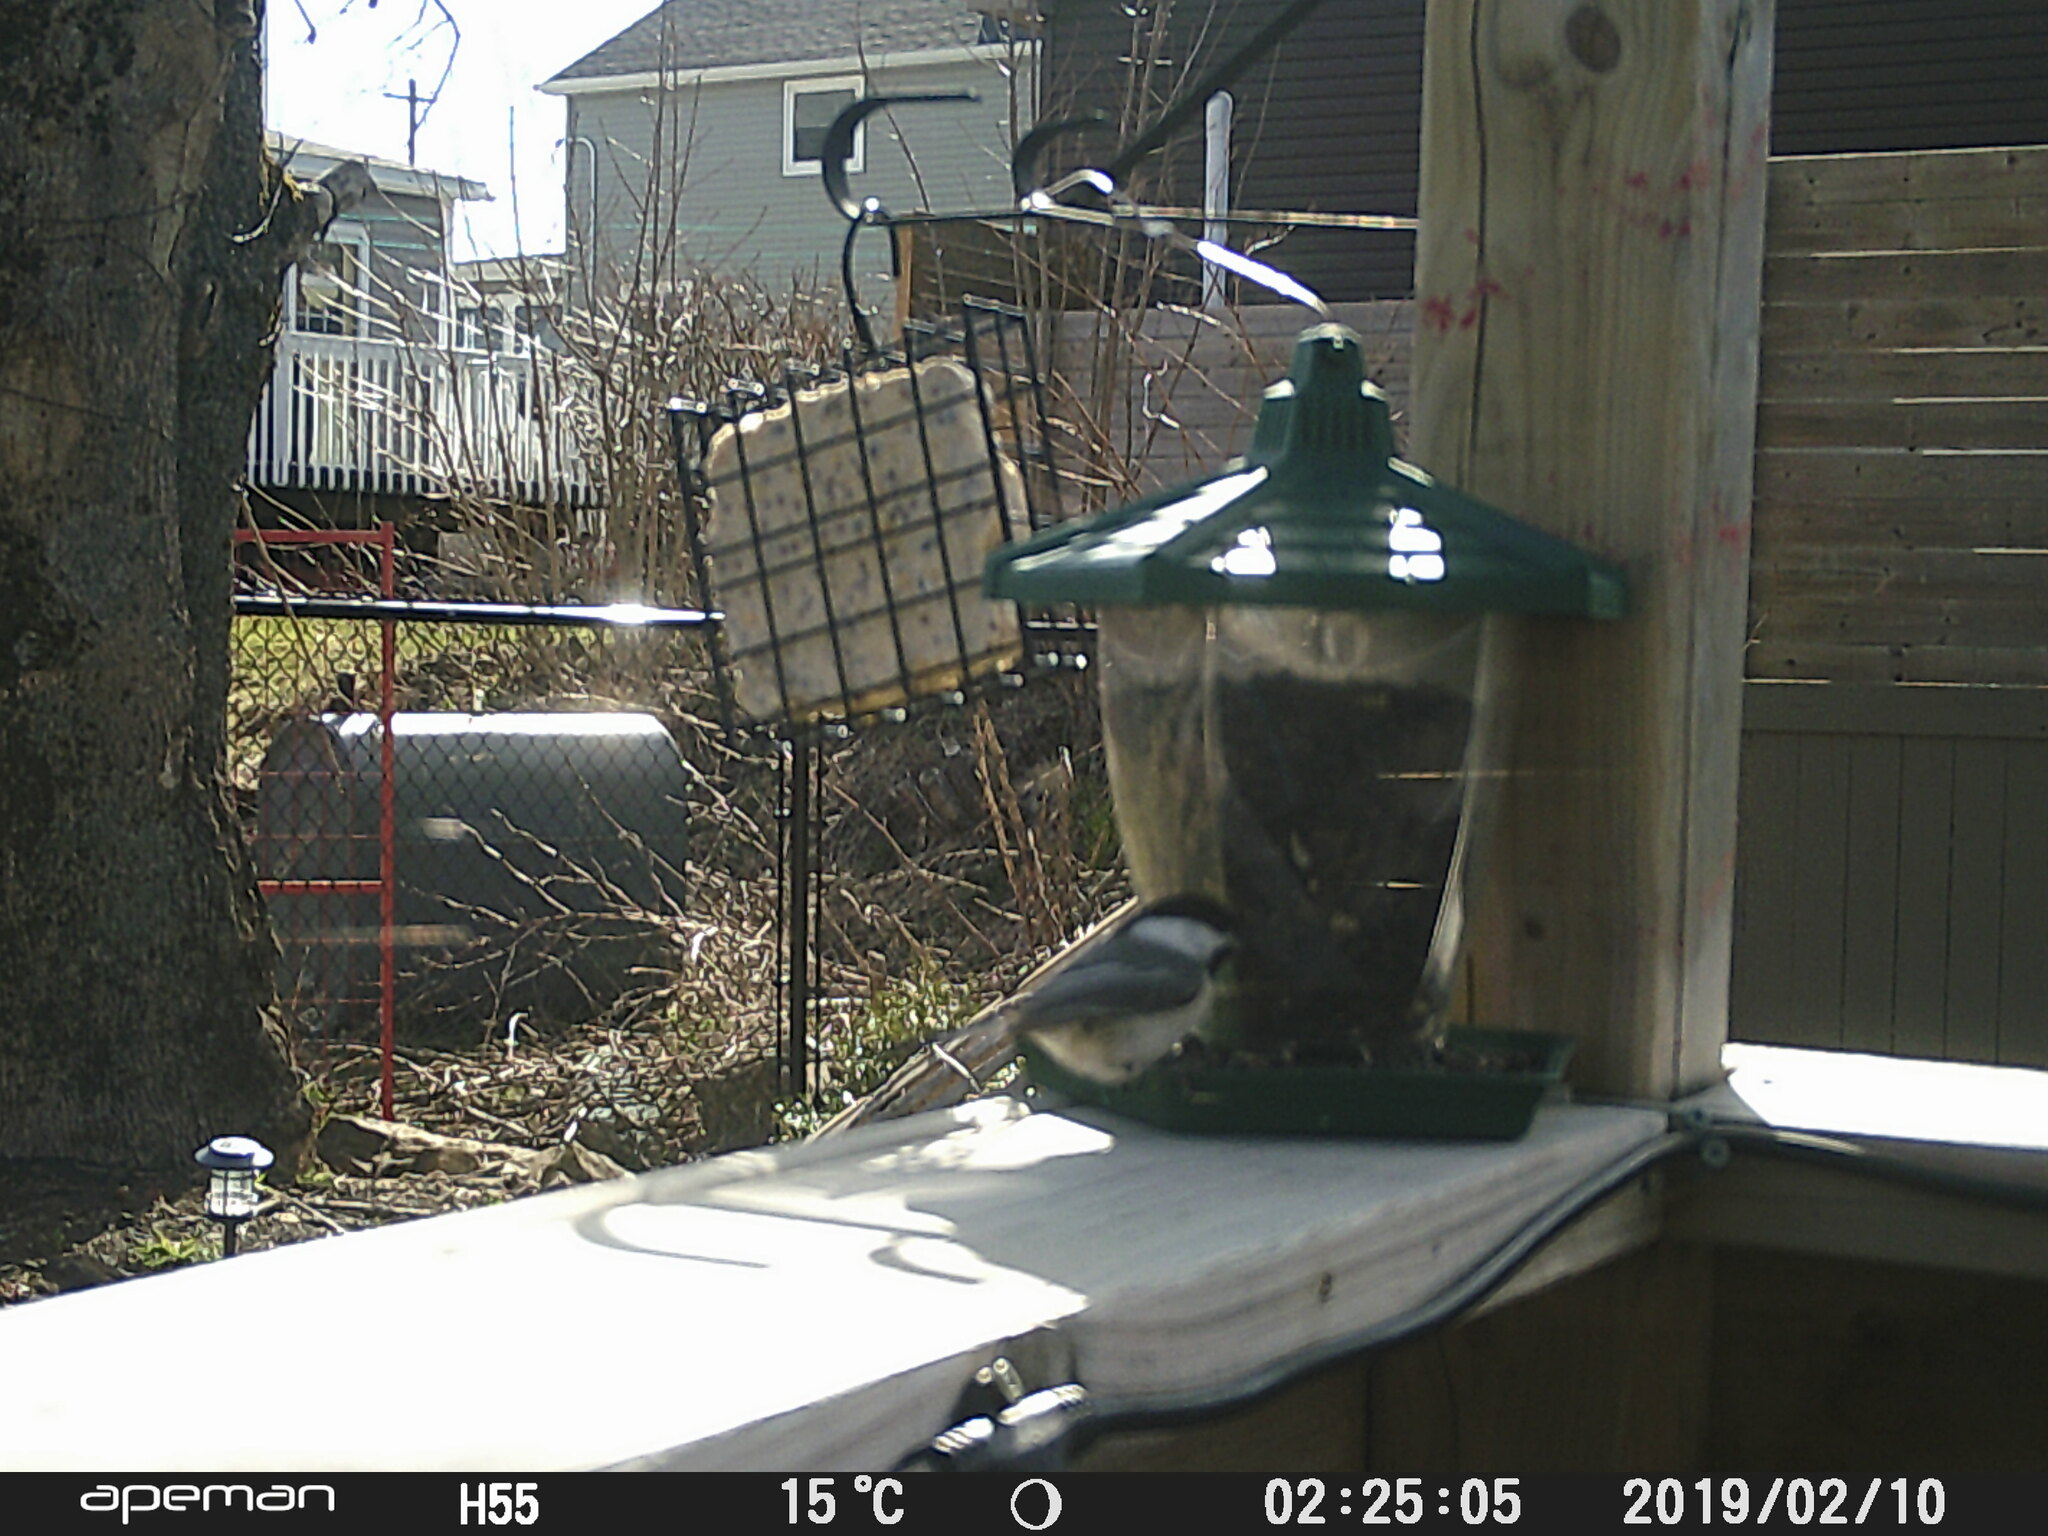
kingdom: Animalia
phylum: Chordata
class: Aves
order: Passeriformes
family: Paridae
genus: Poecile
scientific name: Poecile atricapillus
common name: Black-capped chickadee
